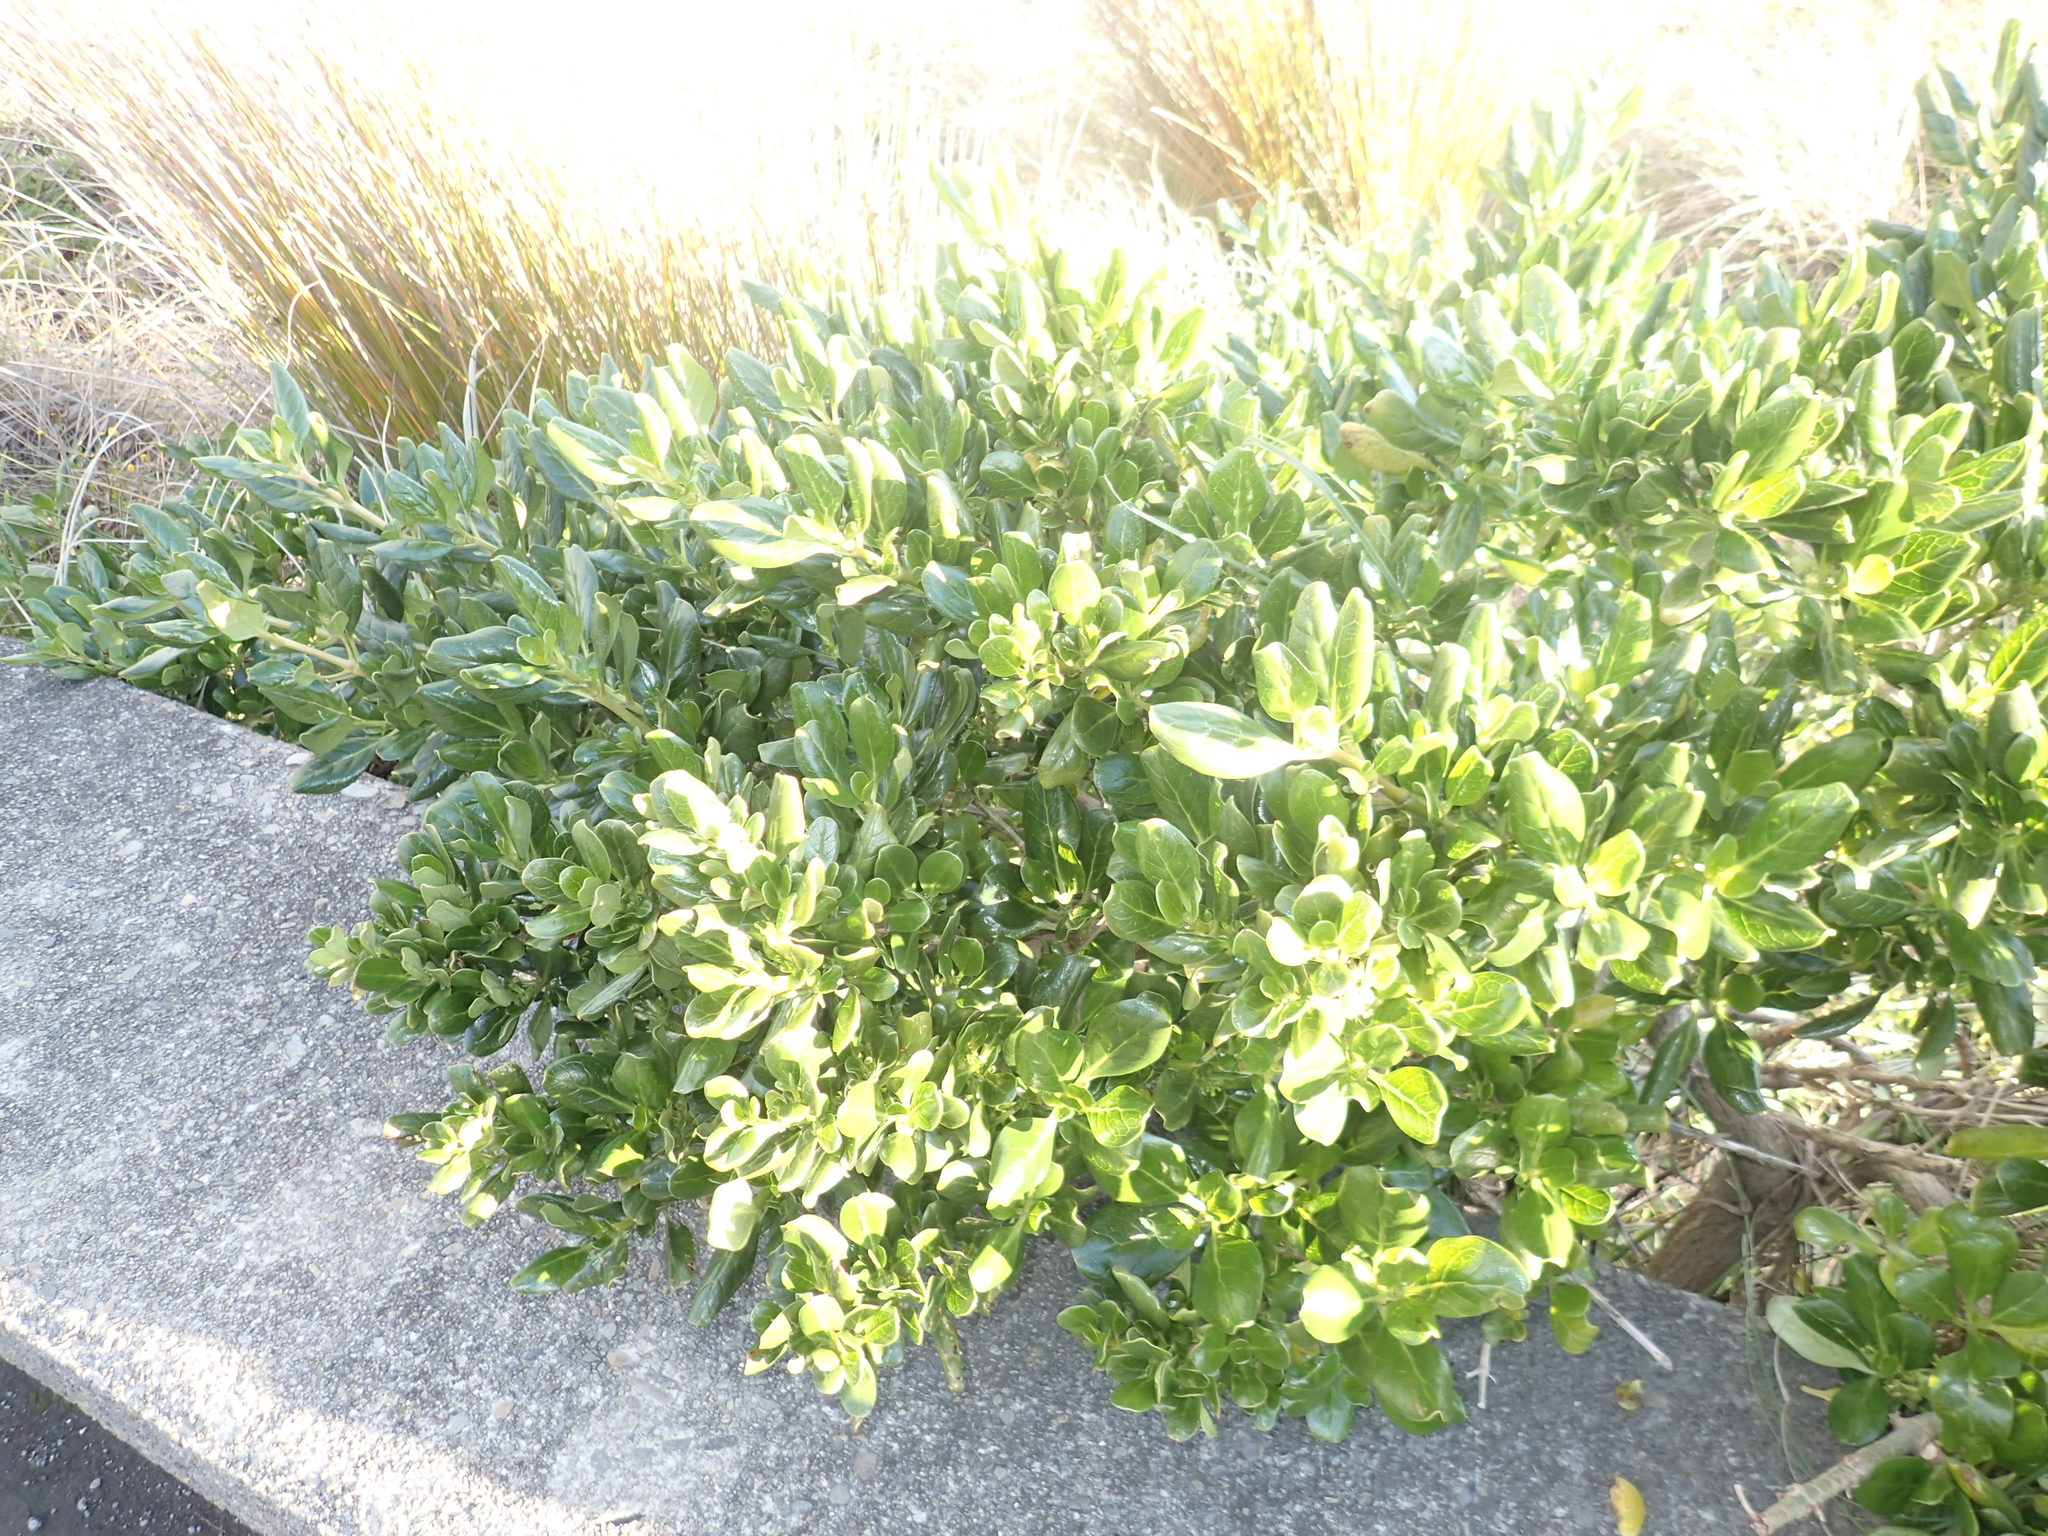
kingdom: Plantae
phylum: Tracheophyta
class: Magnoliopsida
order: Gentianales
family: Rubiaceae
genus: Coprosma
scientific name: Coprosma repens
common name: Tree bedstraw
